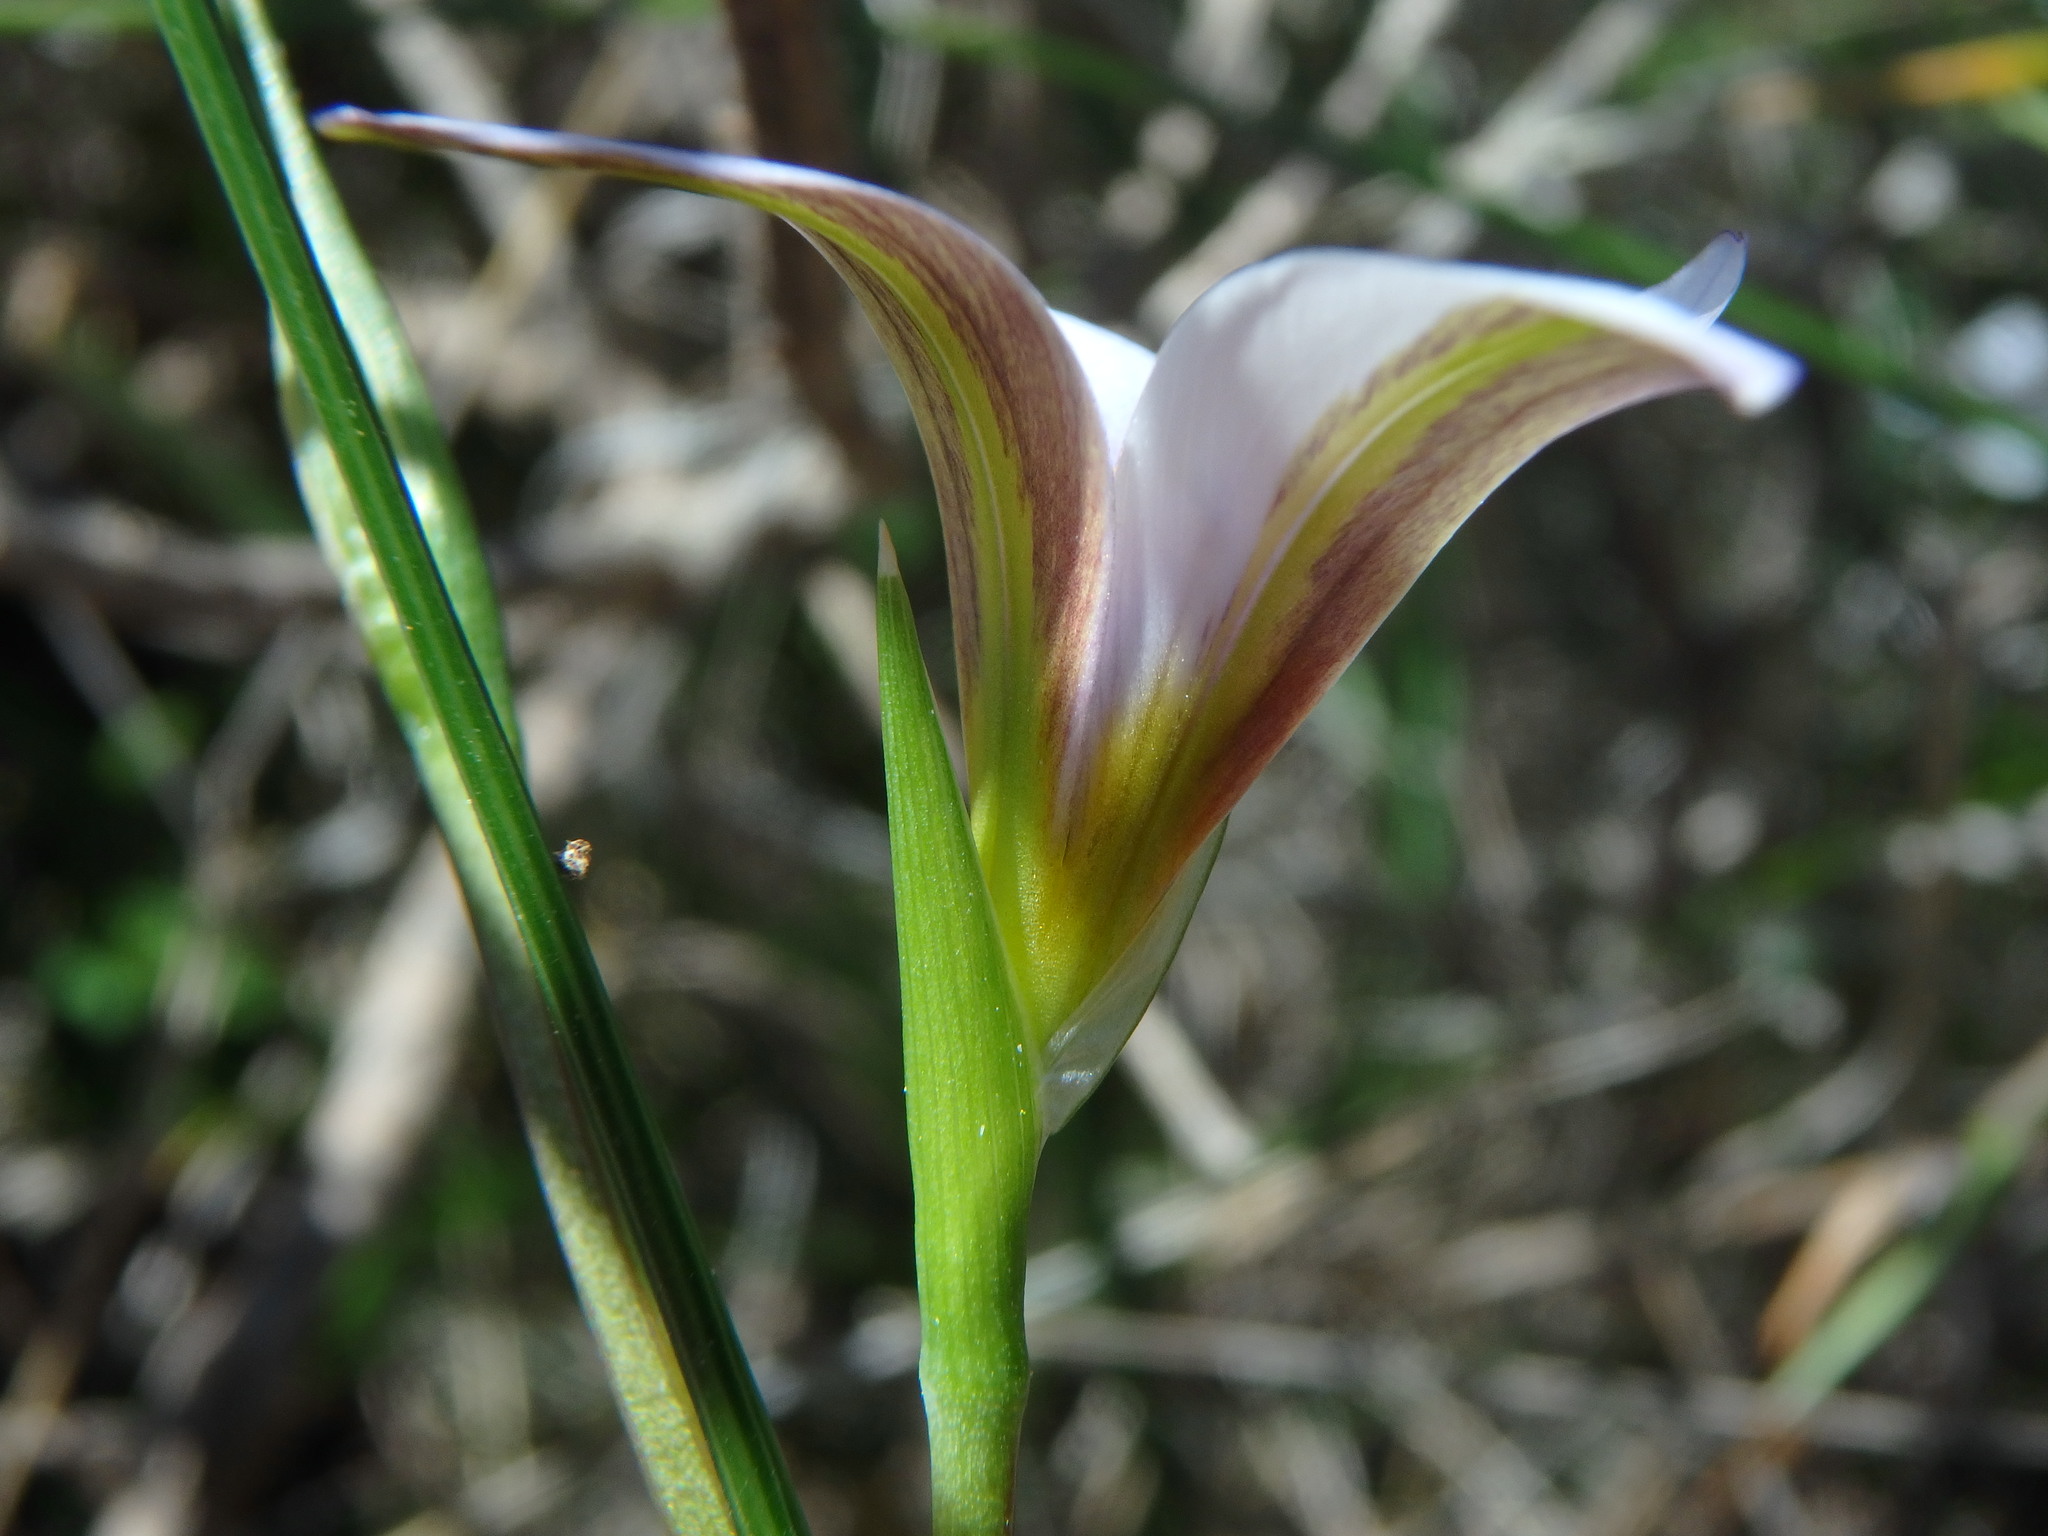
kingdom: Plantae
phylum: Tracheophyta
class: Liliopsida
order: Asparagales
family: Iridaceae
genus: Romulea
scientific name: Romulea columnae
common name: Sand-crocus
